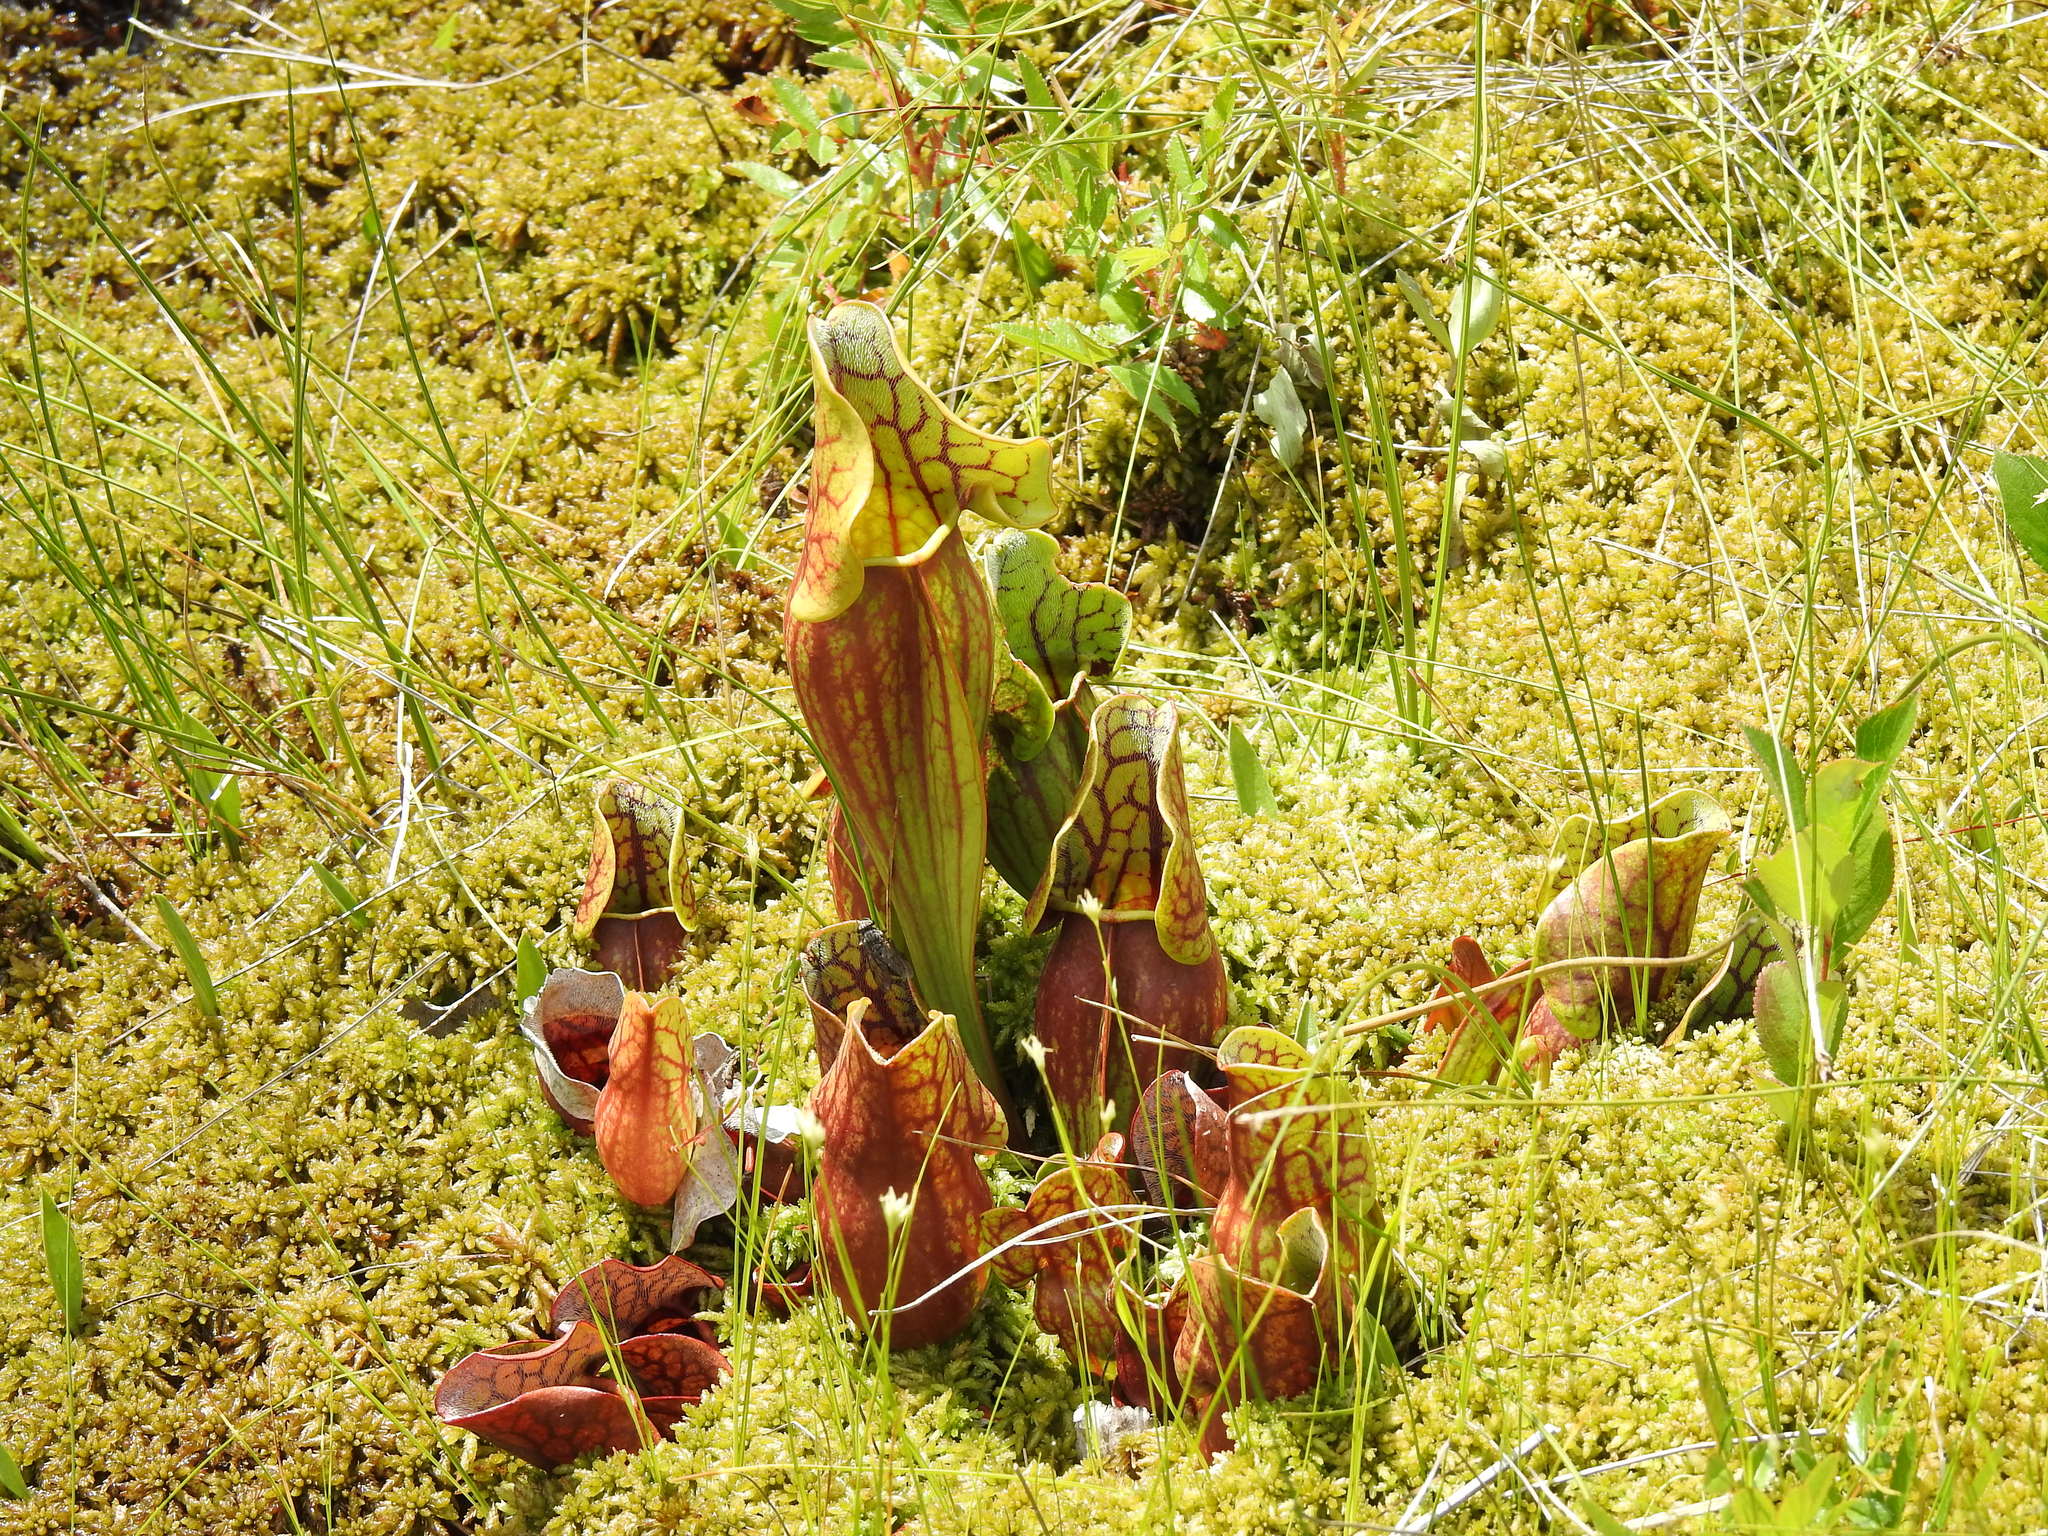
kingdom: Plantae
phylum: Tracheophyta
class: Magnoliopsida
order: Ericales
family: Sarraceniaceae
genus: Sarracenia
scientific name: Sarracenia purpurea
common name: Pitcherplant
